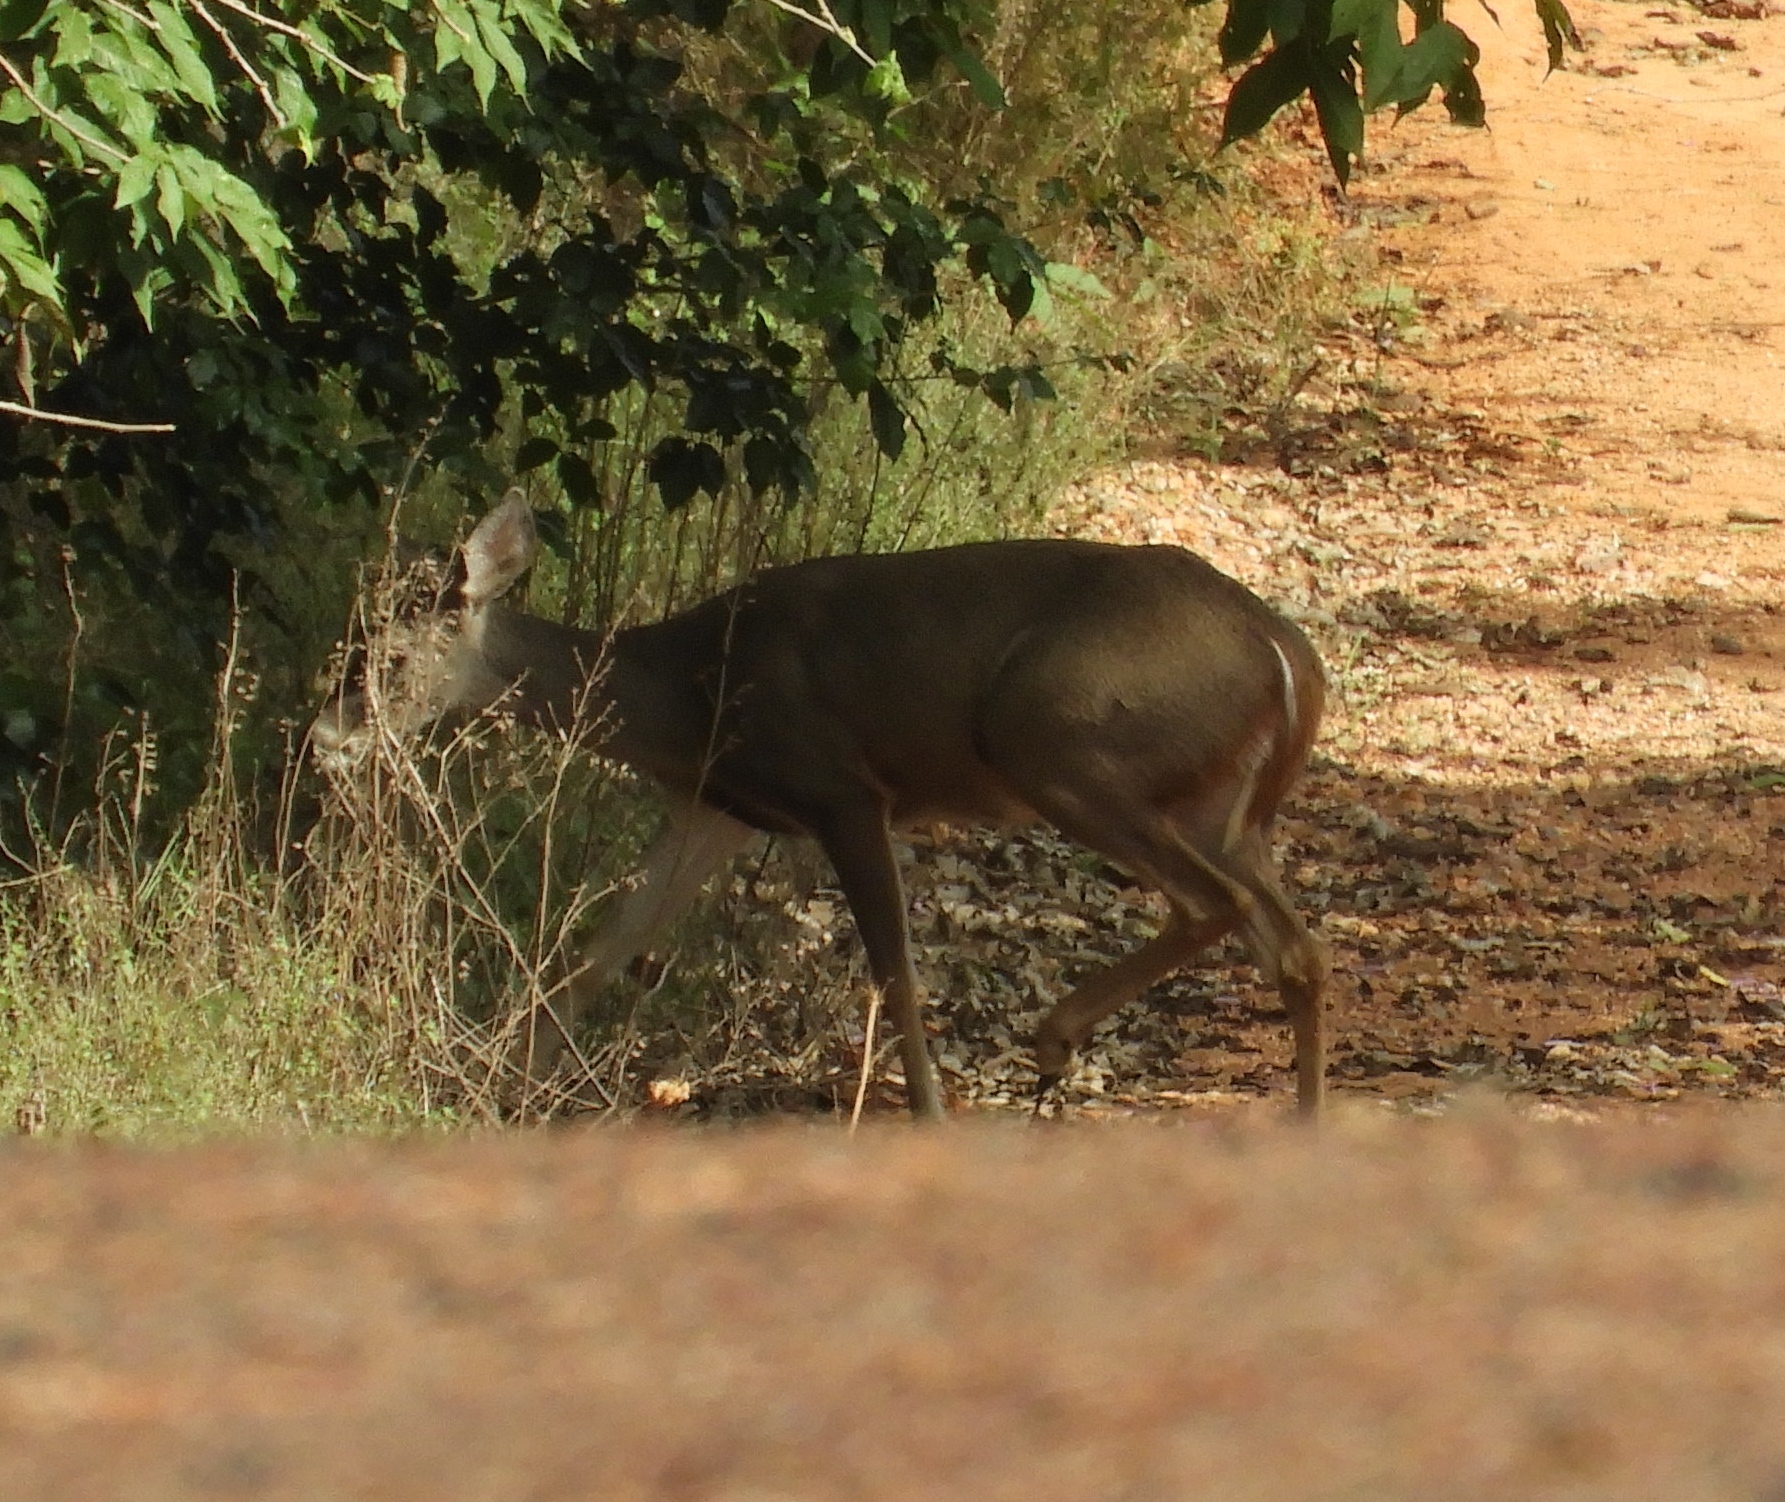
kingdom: Animalia
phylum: Chordata
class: Mammalia
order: Artiodactyla
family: Cervidae
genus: Odocoileus
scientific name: Odocoileus virginianus
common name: White-tailed deer
